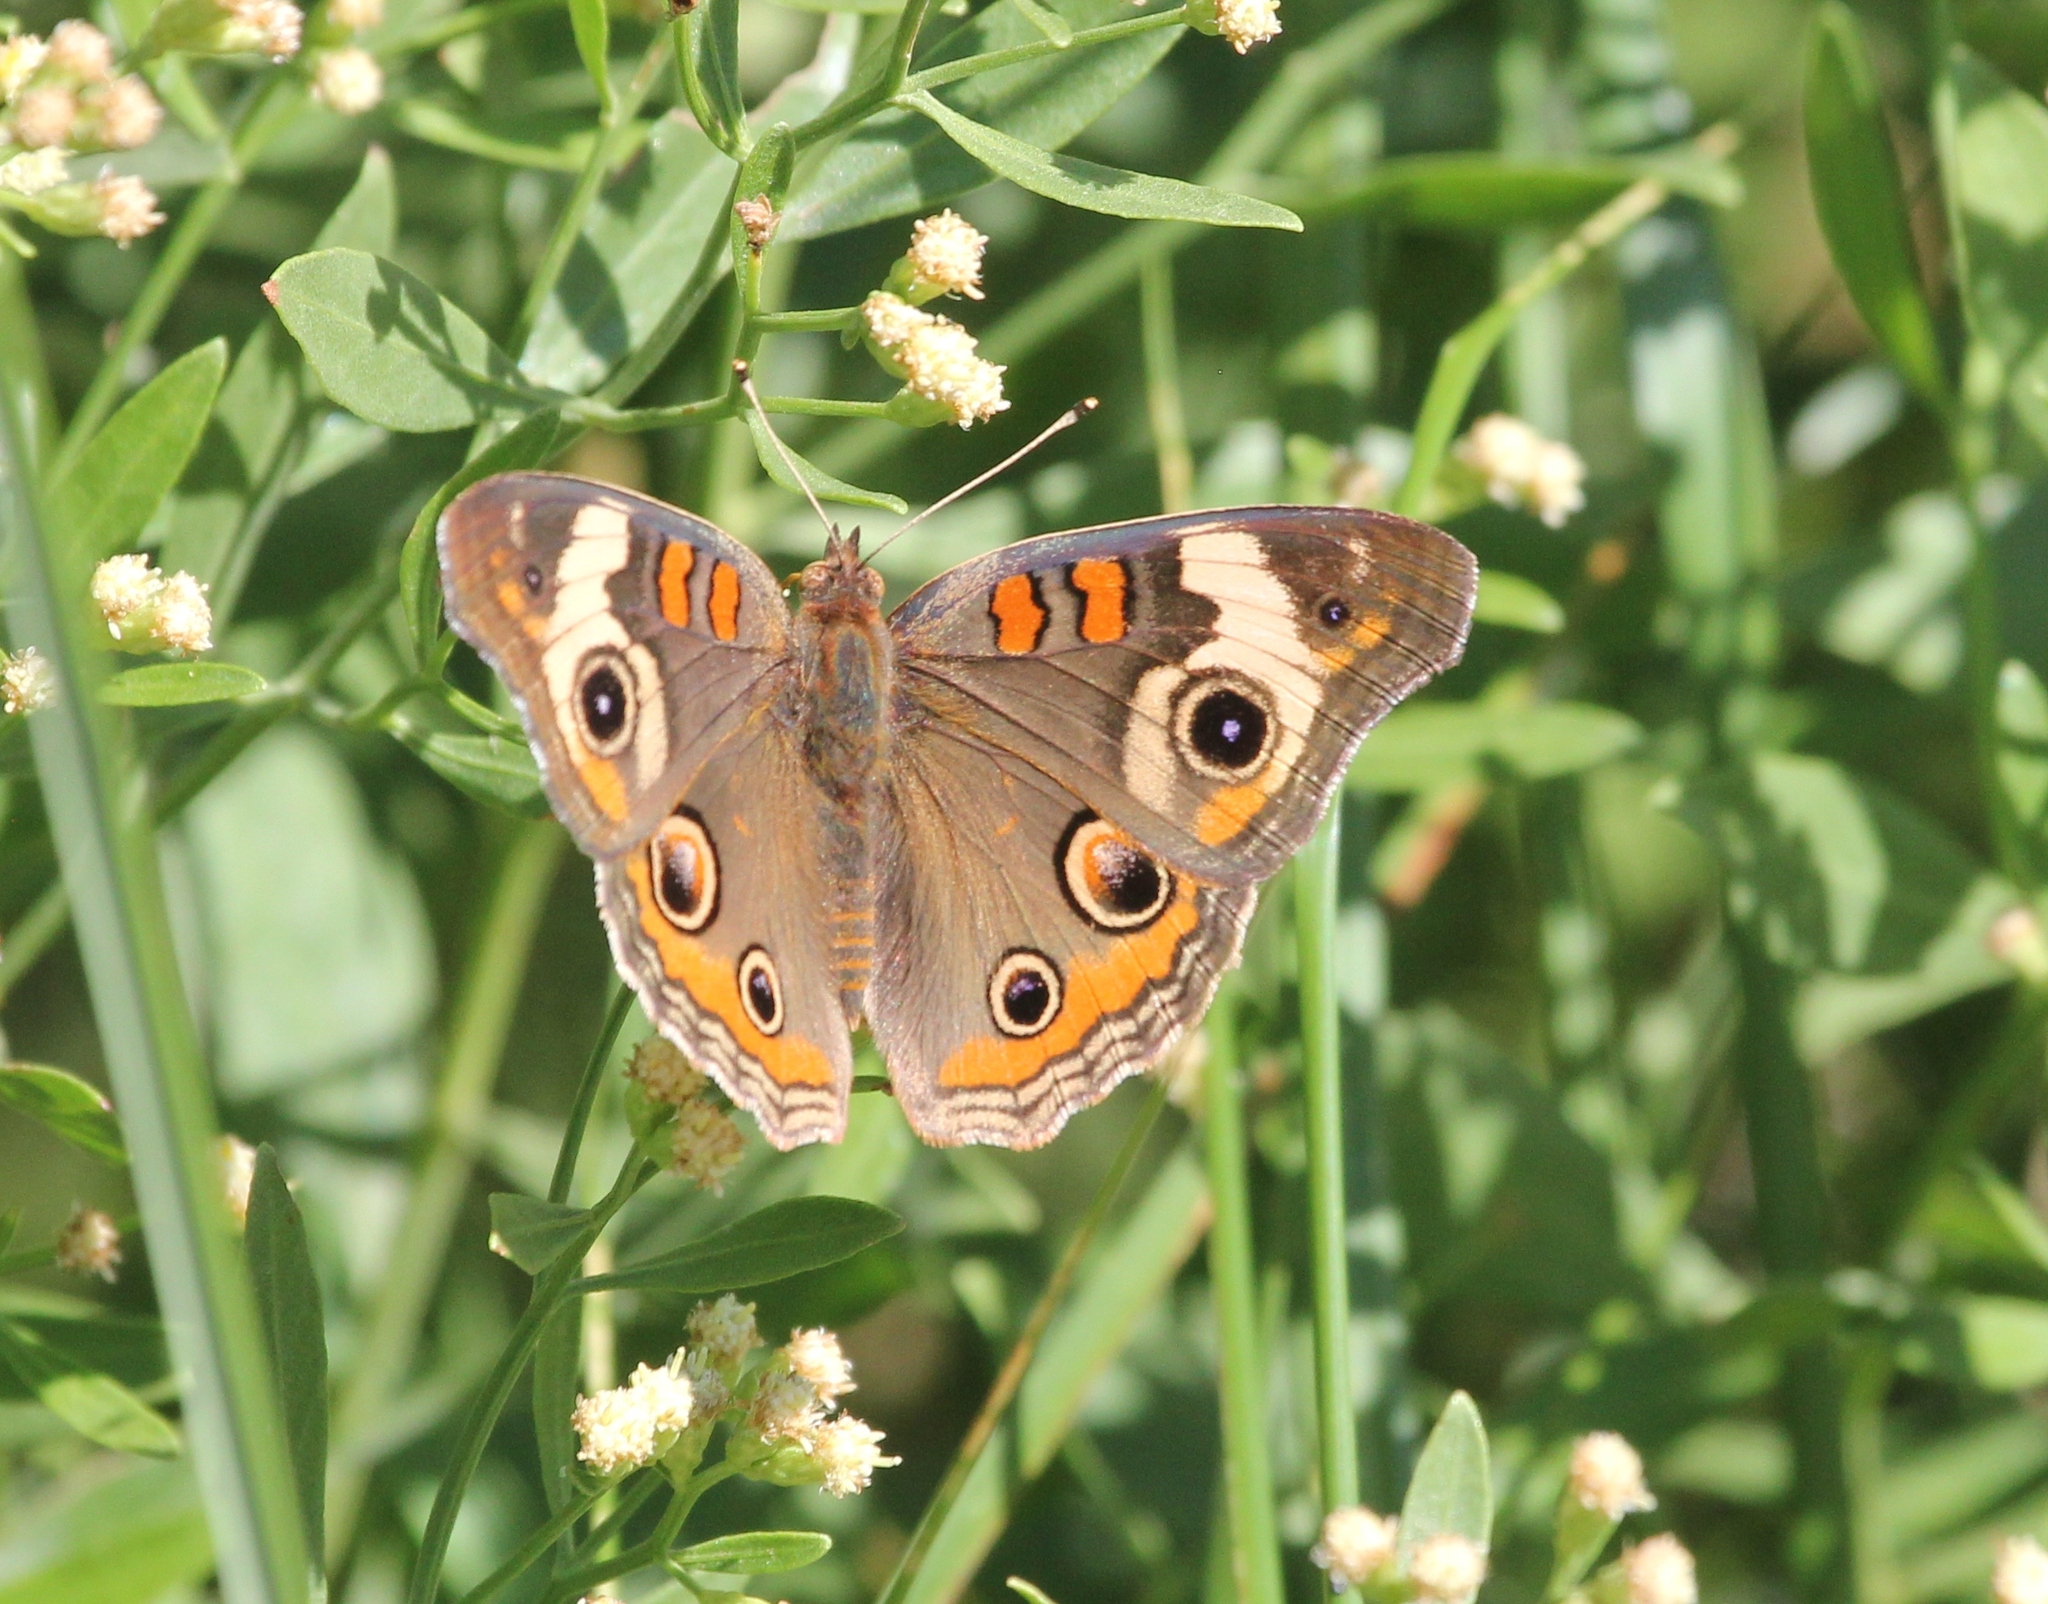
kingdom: Animalia
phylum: Arthropoda
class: Insecta
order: Lepidoptera
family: Nymphalidae
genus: Junonia
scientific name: Junonia coenia
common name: Common buckeye
